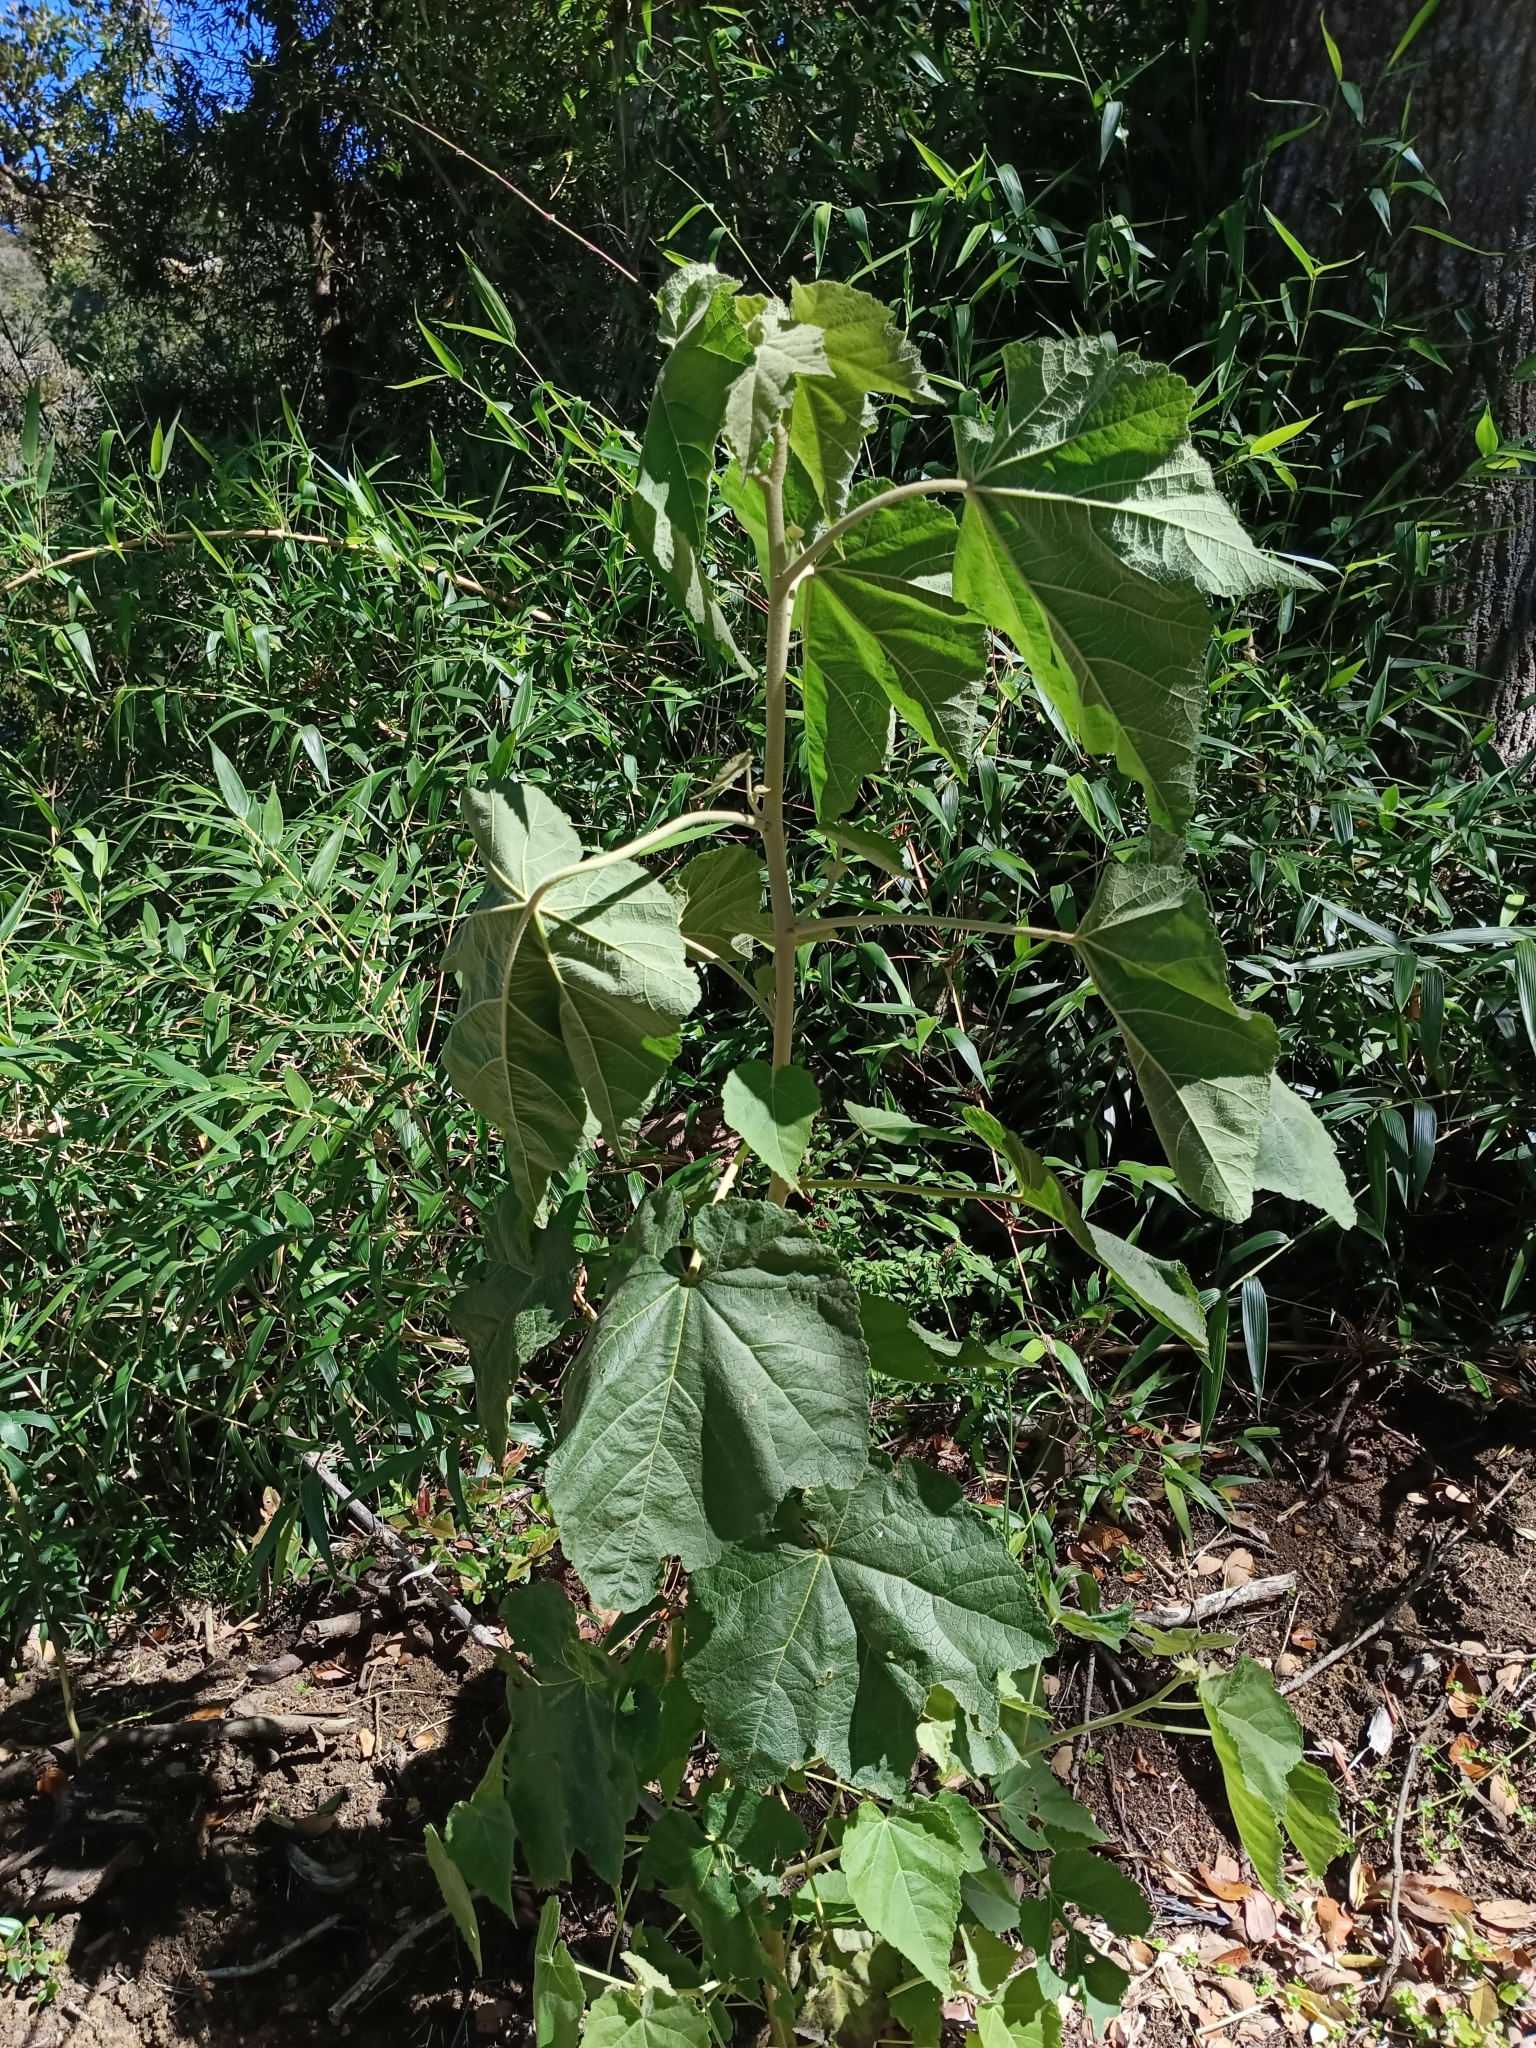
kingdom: Plantae
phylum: Tracheophyta
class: Magnoliopsida
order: Malvales
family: Malvaceae
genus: Corynabutilon
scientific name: Corynabutilon vitifolium
